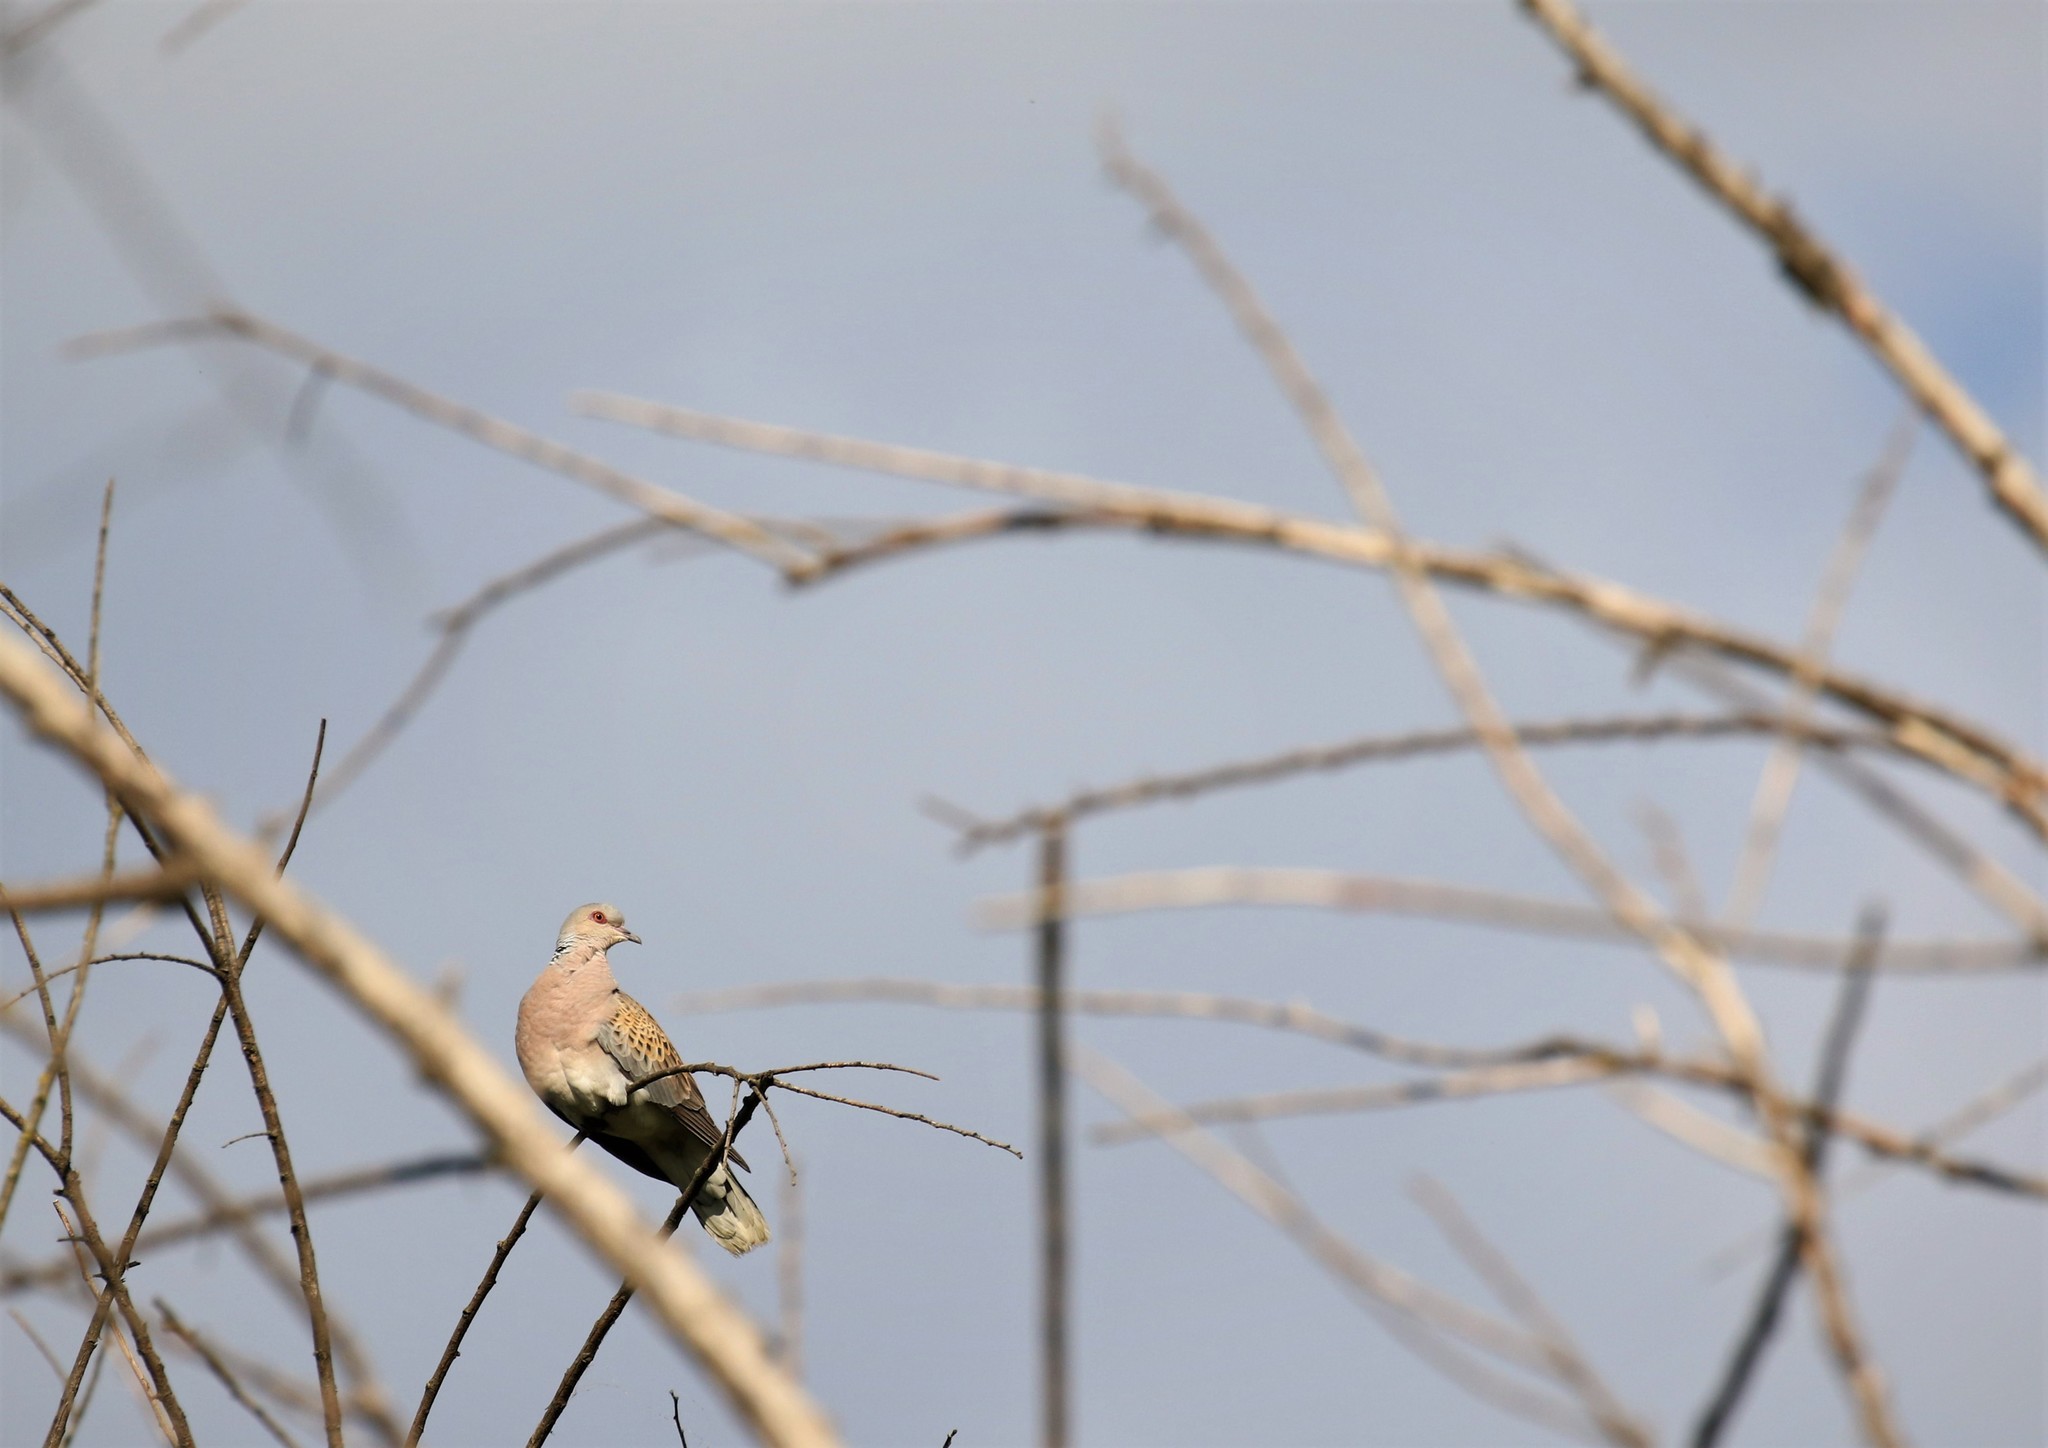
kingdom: Animalia
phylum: Chordata
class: Aves
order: Columbiformes
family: Columbidae
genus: Streptopelia
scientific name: Streptopelia turtur
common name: European turtle dove
